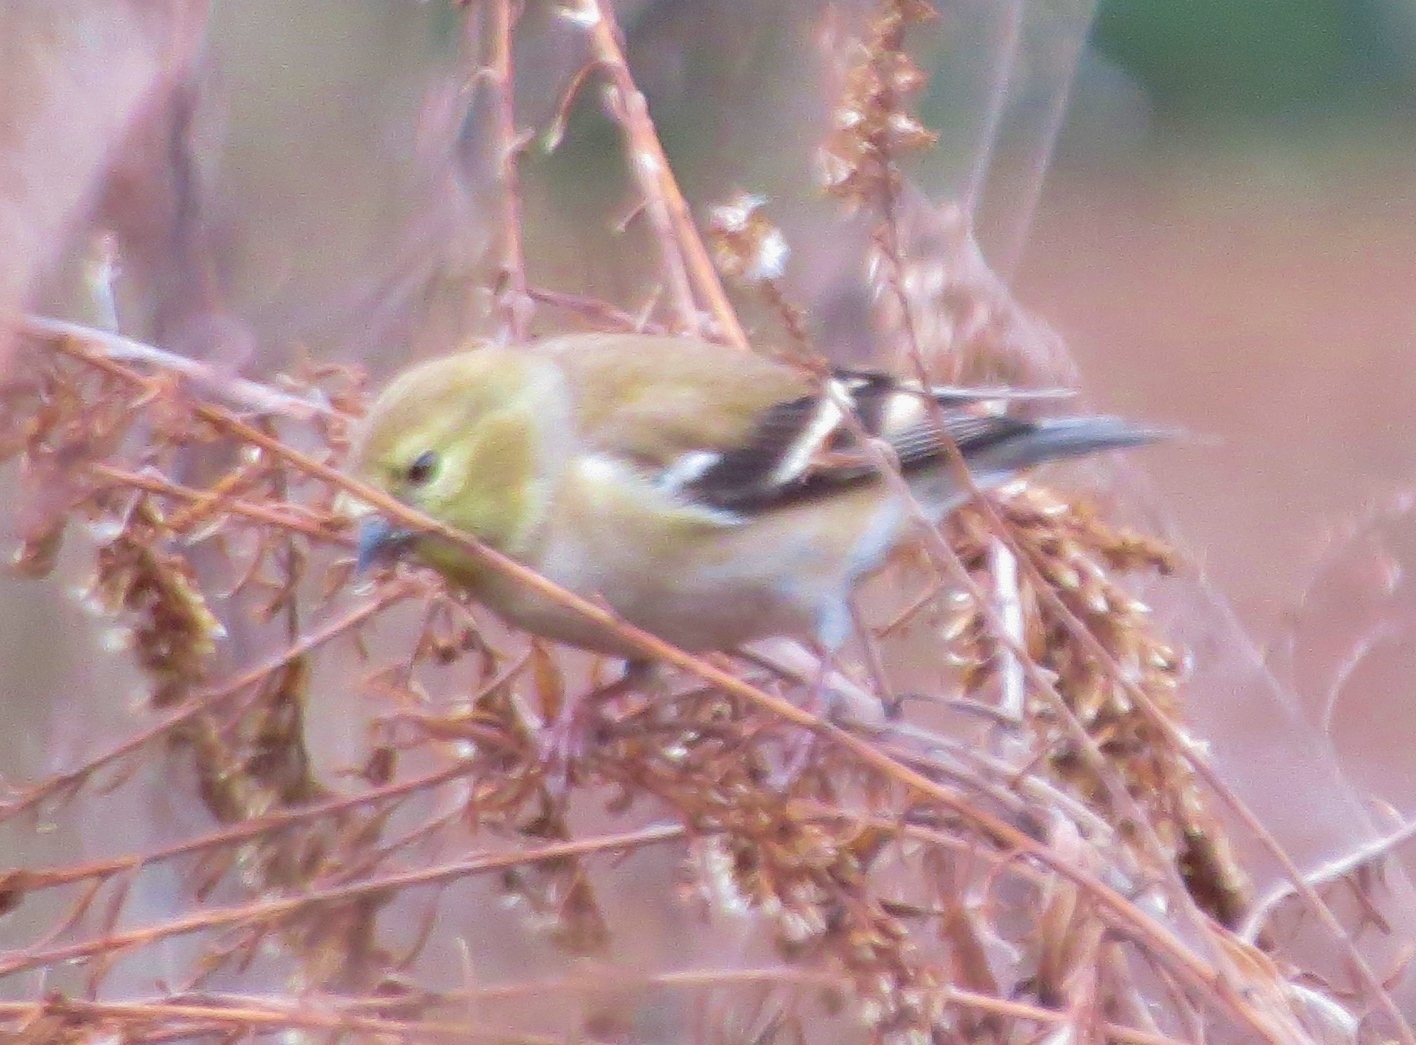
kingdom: Animalia
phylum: Chordata
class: Aves
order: Passeriformes
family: Fringillidae
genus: Spinus
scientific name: Spinus tristis
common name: American goldfinch
